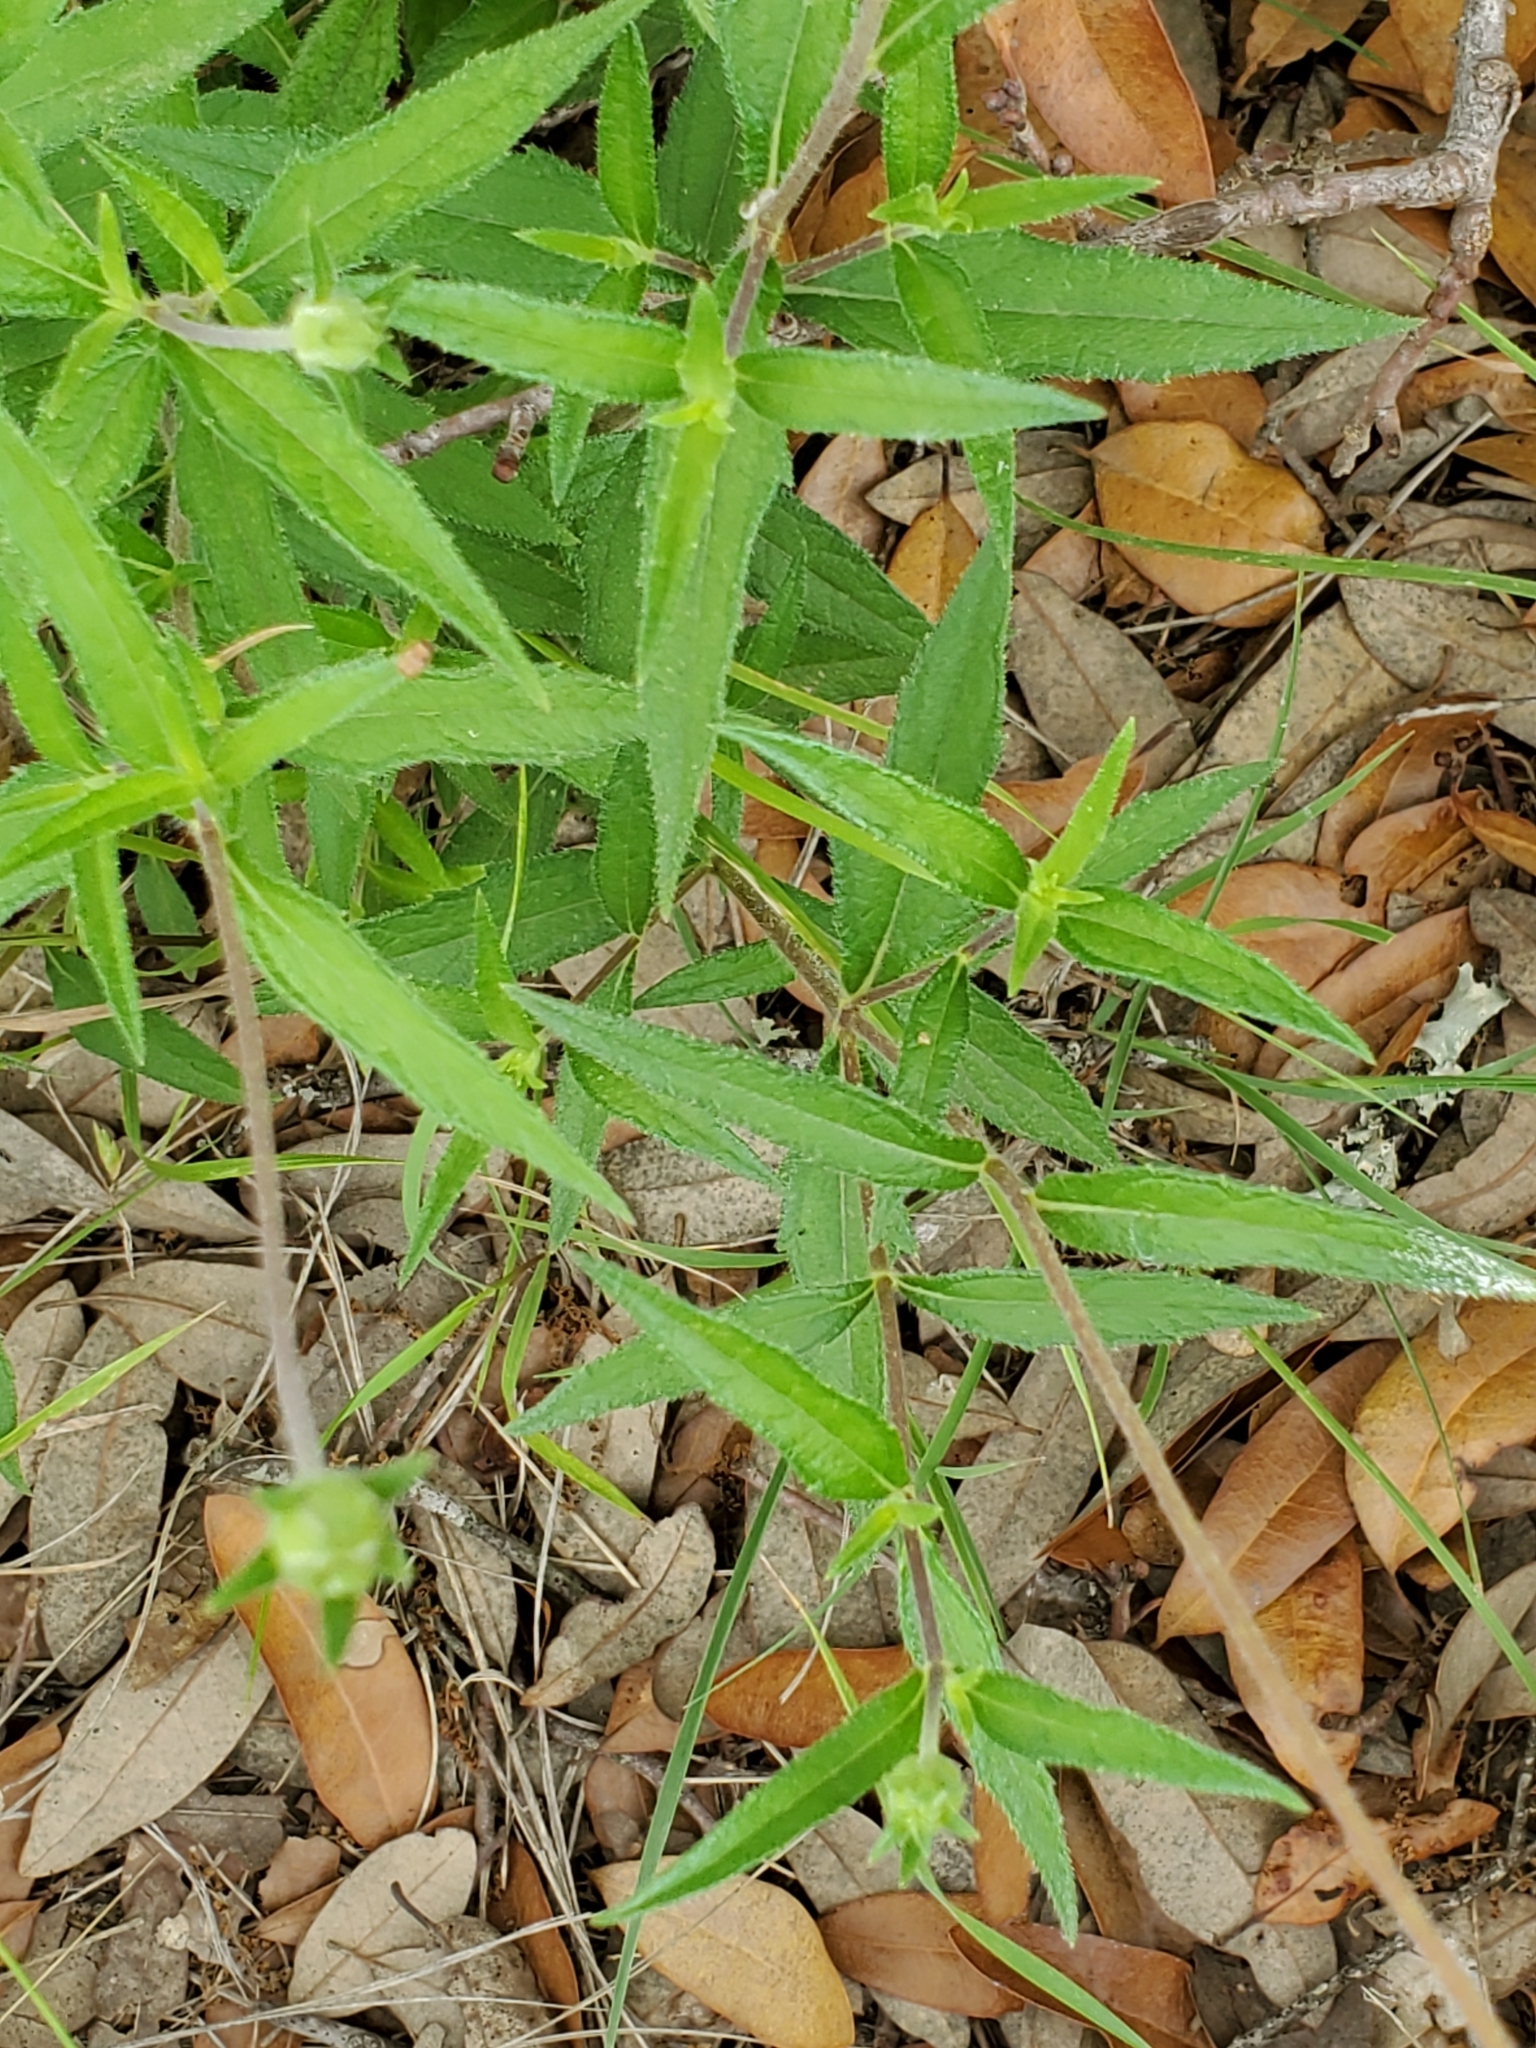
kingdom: Plantae
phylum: Tracheophyta
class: Magnoliopsida
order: Asterales
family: Asteraceae
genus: Wedelia
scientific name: Wedelia acapulcensis
